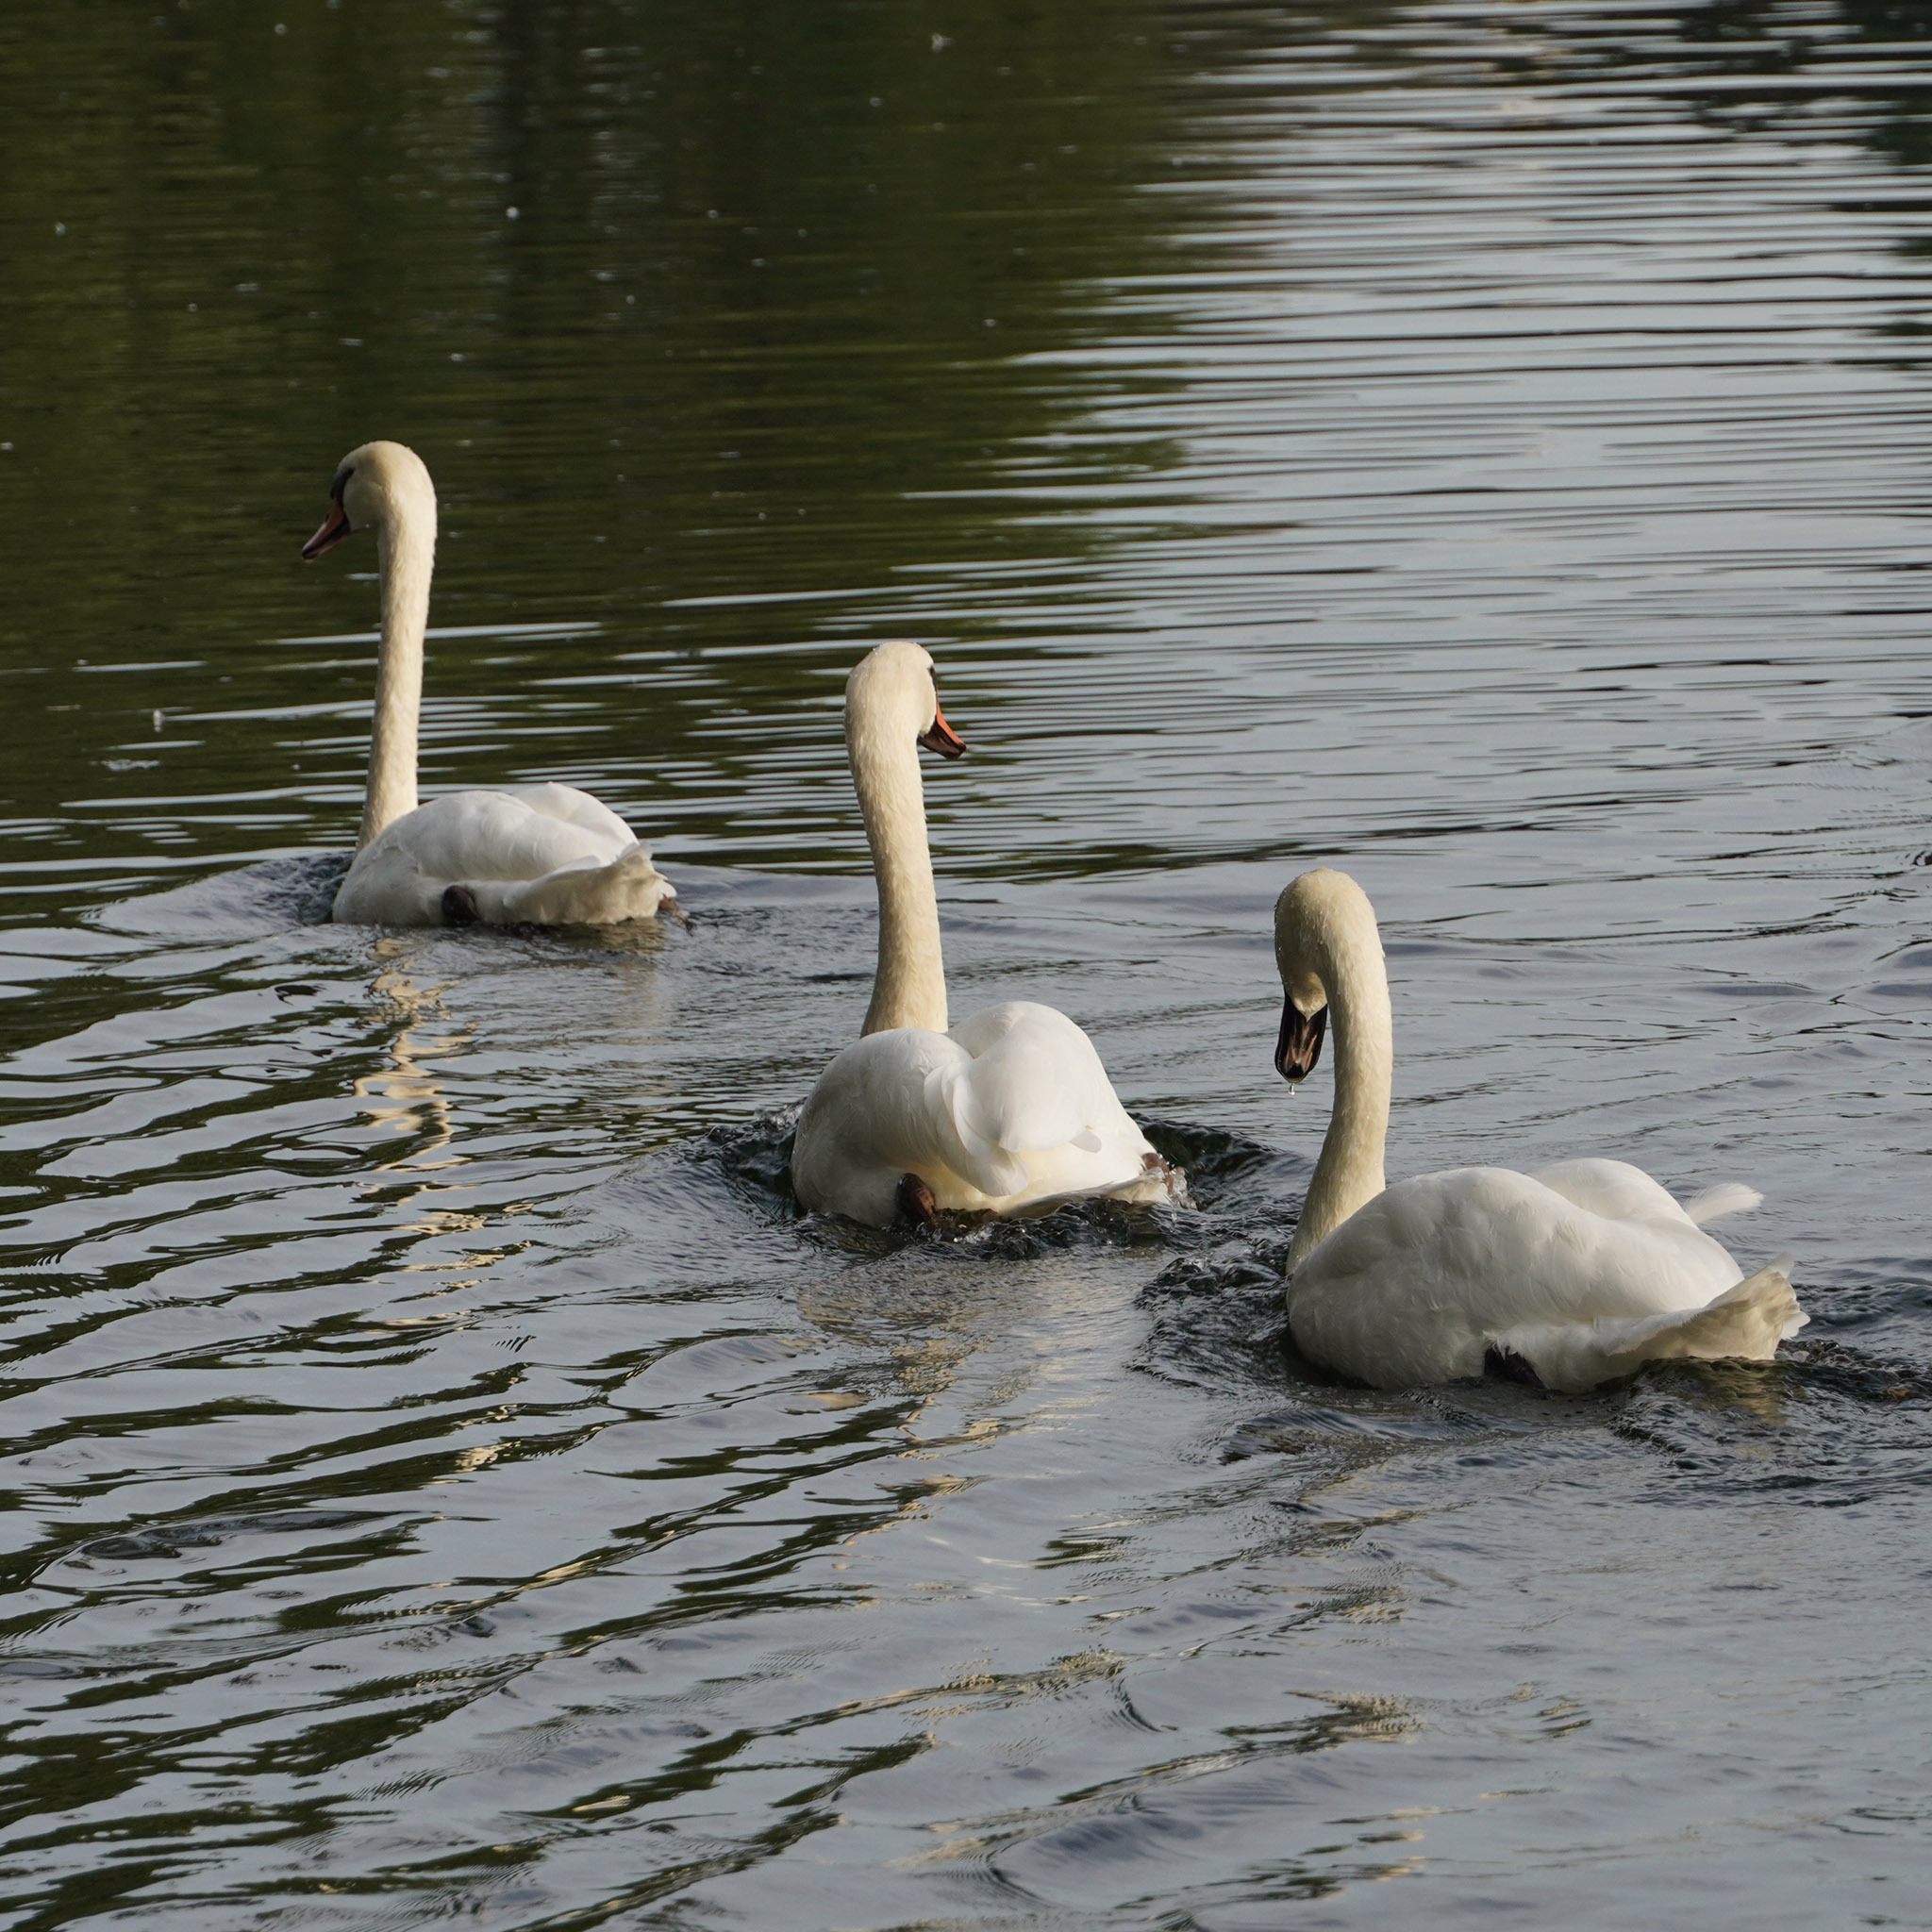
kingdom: Animalia
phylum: Chordata
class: Aves
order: Anseriformes
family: Anatidae
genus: Cygnus
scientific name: Cygnus olor
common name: Mute swan
